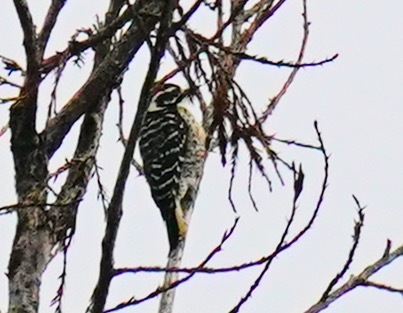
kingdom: Animalia
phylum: Chordata
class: Aves
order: Piciformes
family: Picidae
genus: Dryobates
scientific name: Dryobates nuttallii
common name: Nuttall's woodpecker
